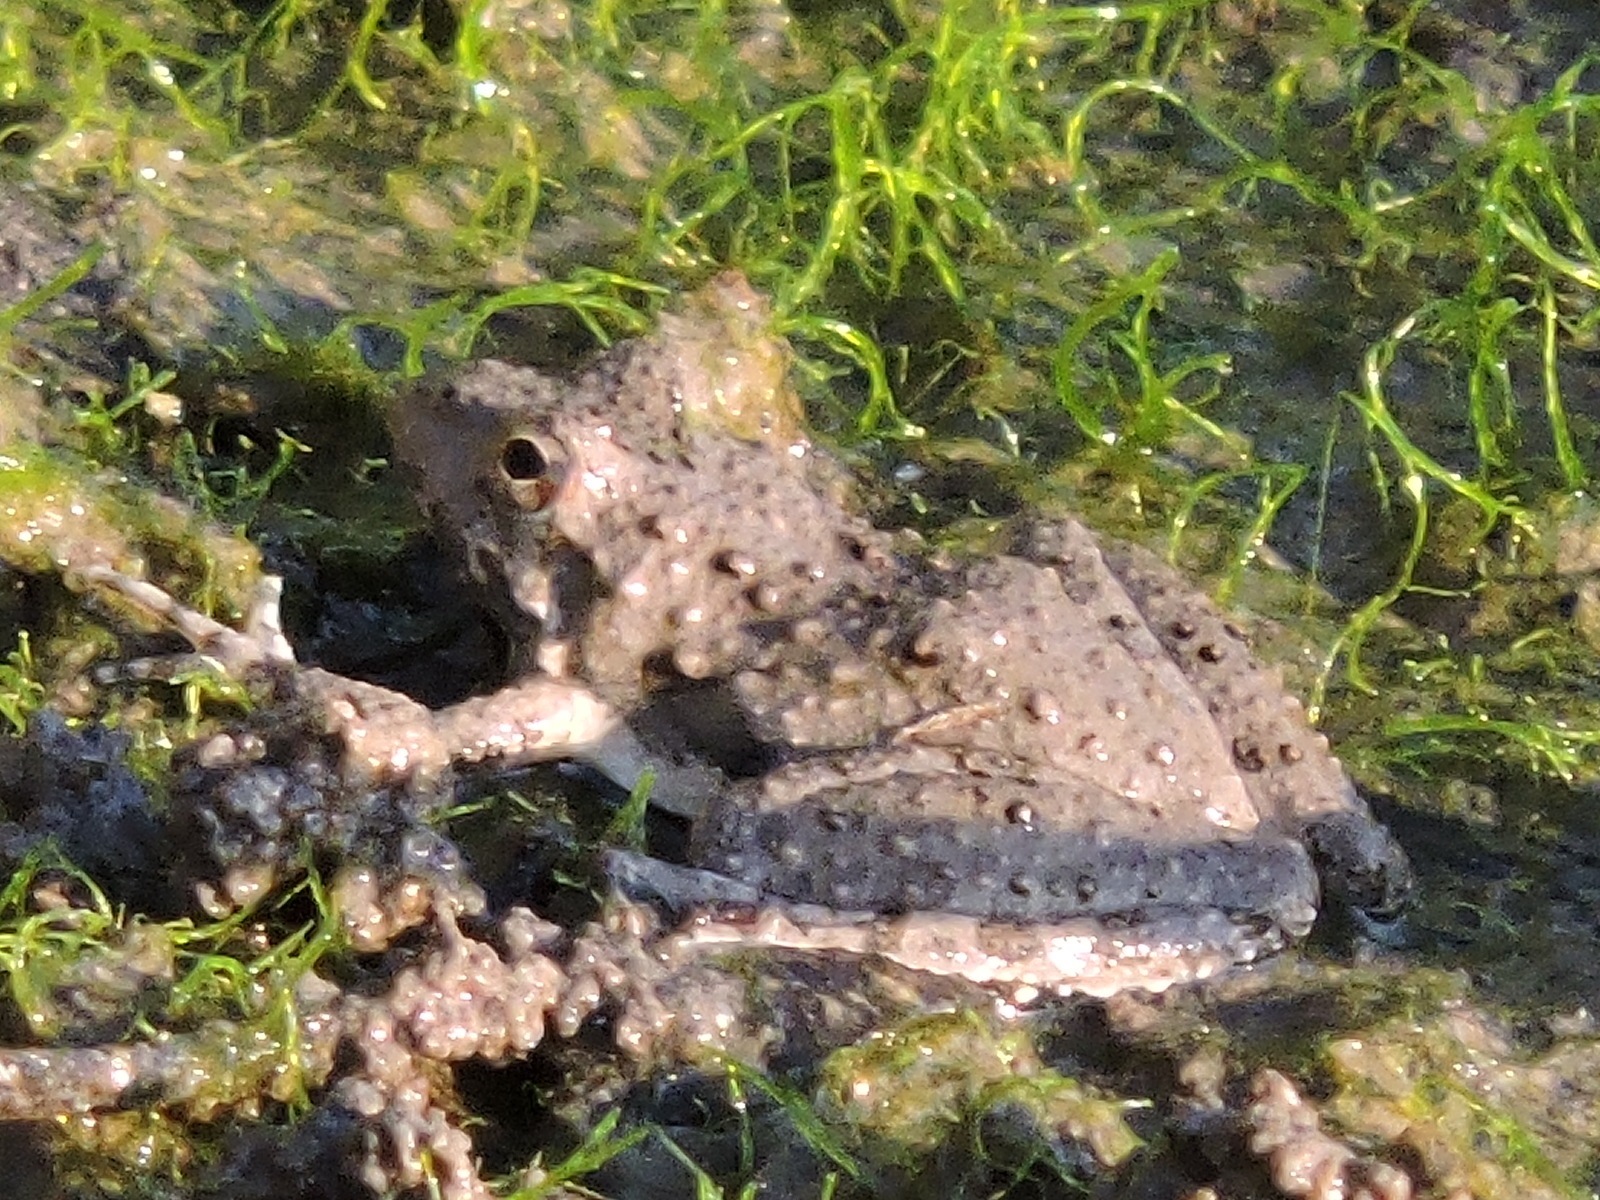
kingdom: Animalia
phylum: Chordata
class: Amphibia
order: Anura
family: Hylidae
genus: Acris
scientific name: Acris blanchardi
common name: Blanchard's cricket frog
